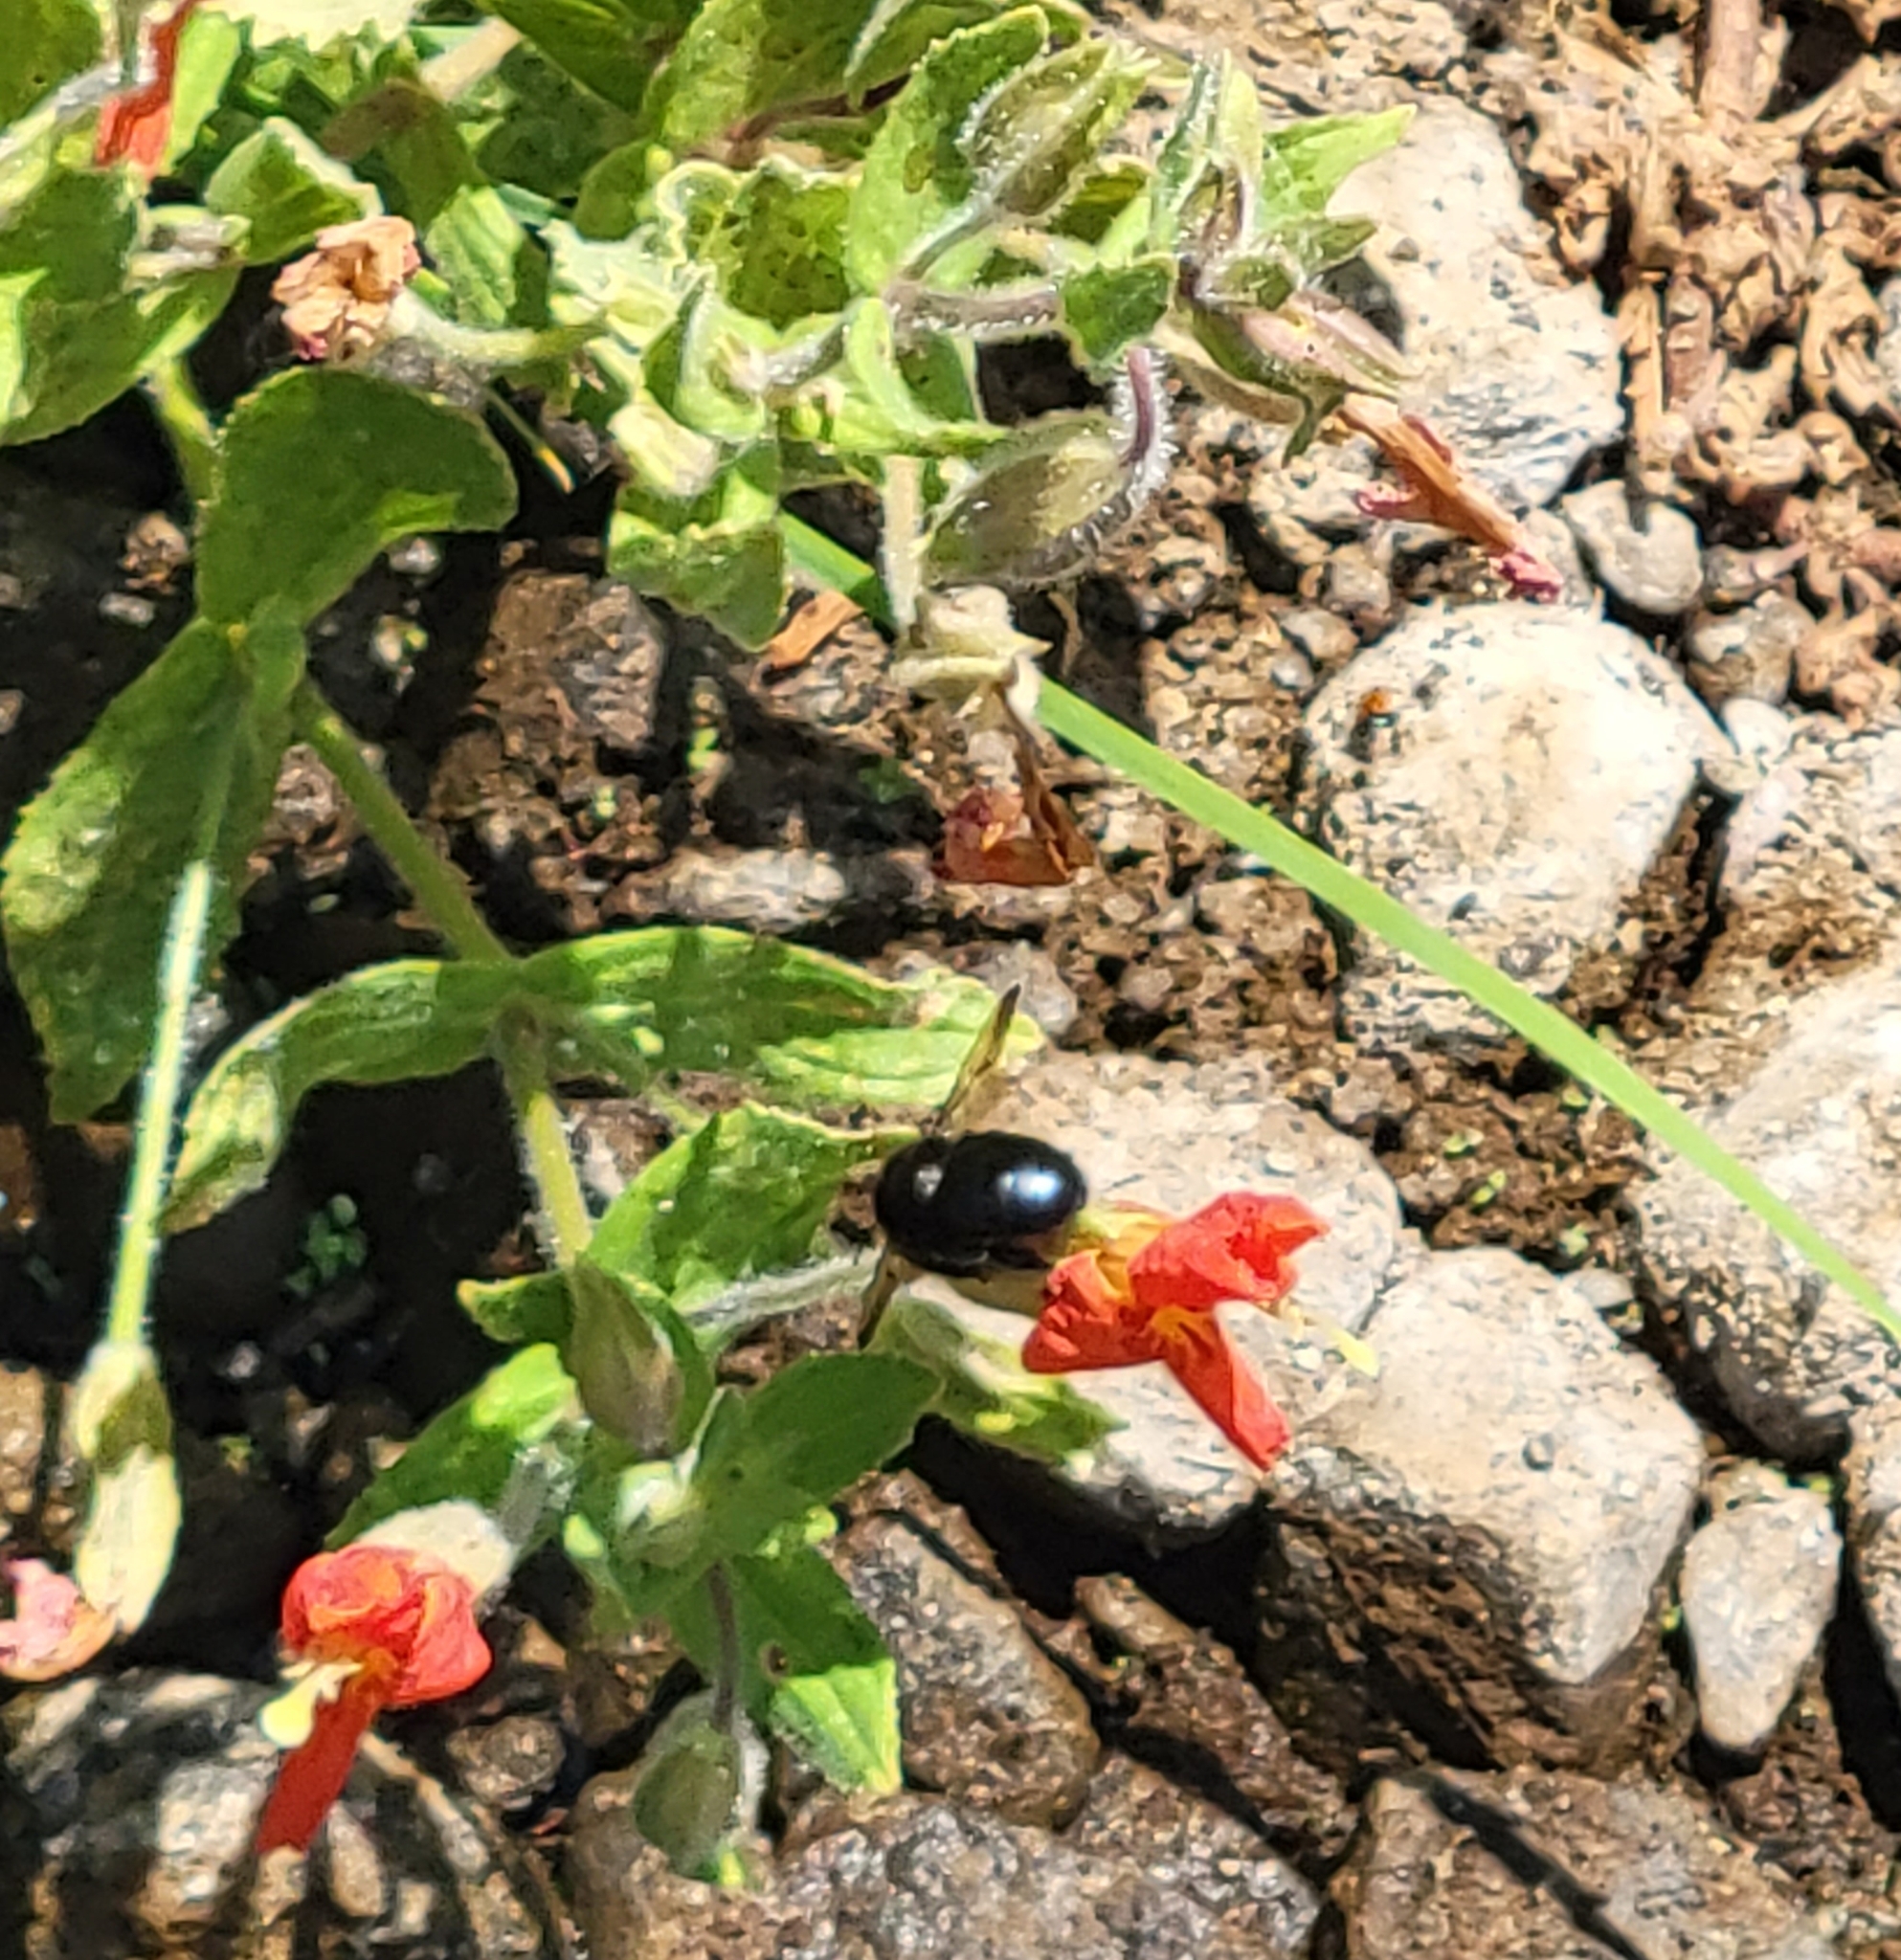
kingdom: Plantae
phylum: Tracheophyta
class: Magnoliopsida
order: Lamiales
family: Phrymaceae
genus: Erythranthe
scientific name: Erythranthe cardinalis
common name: Scarlet monkey-flower
